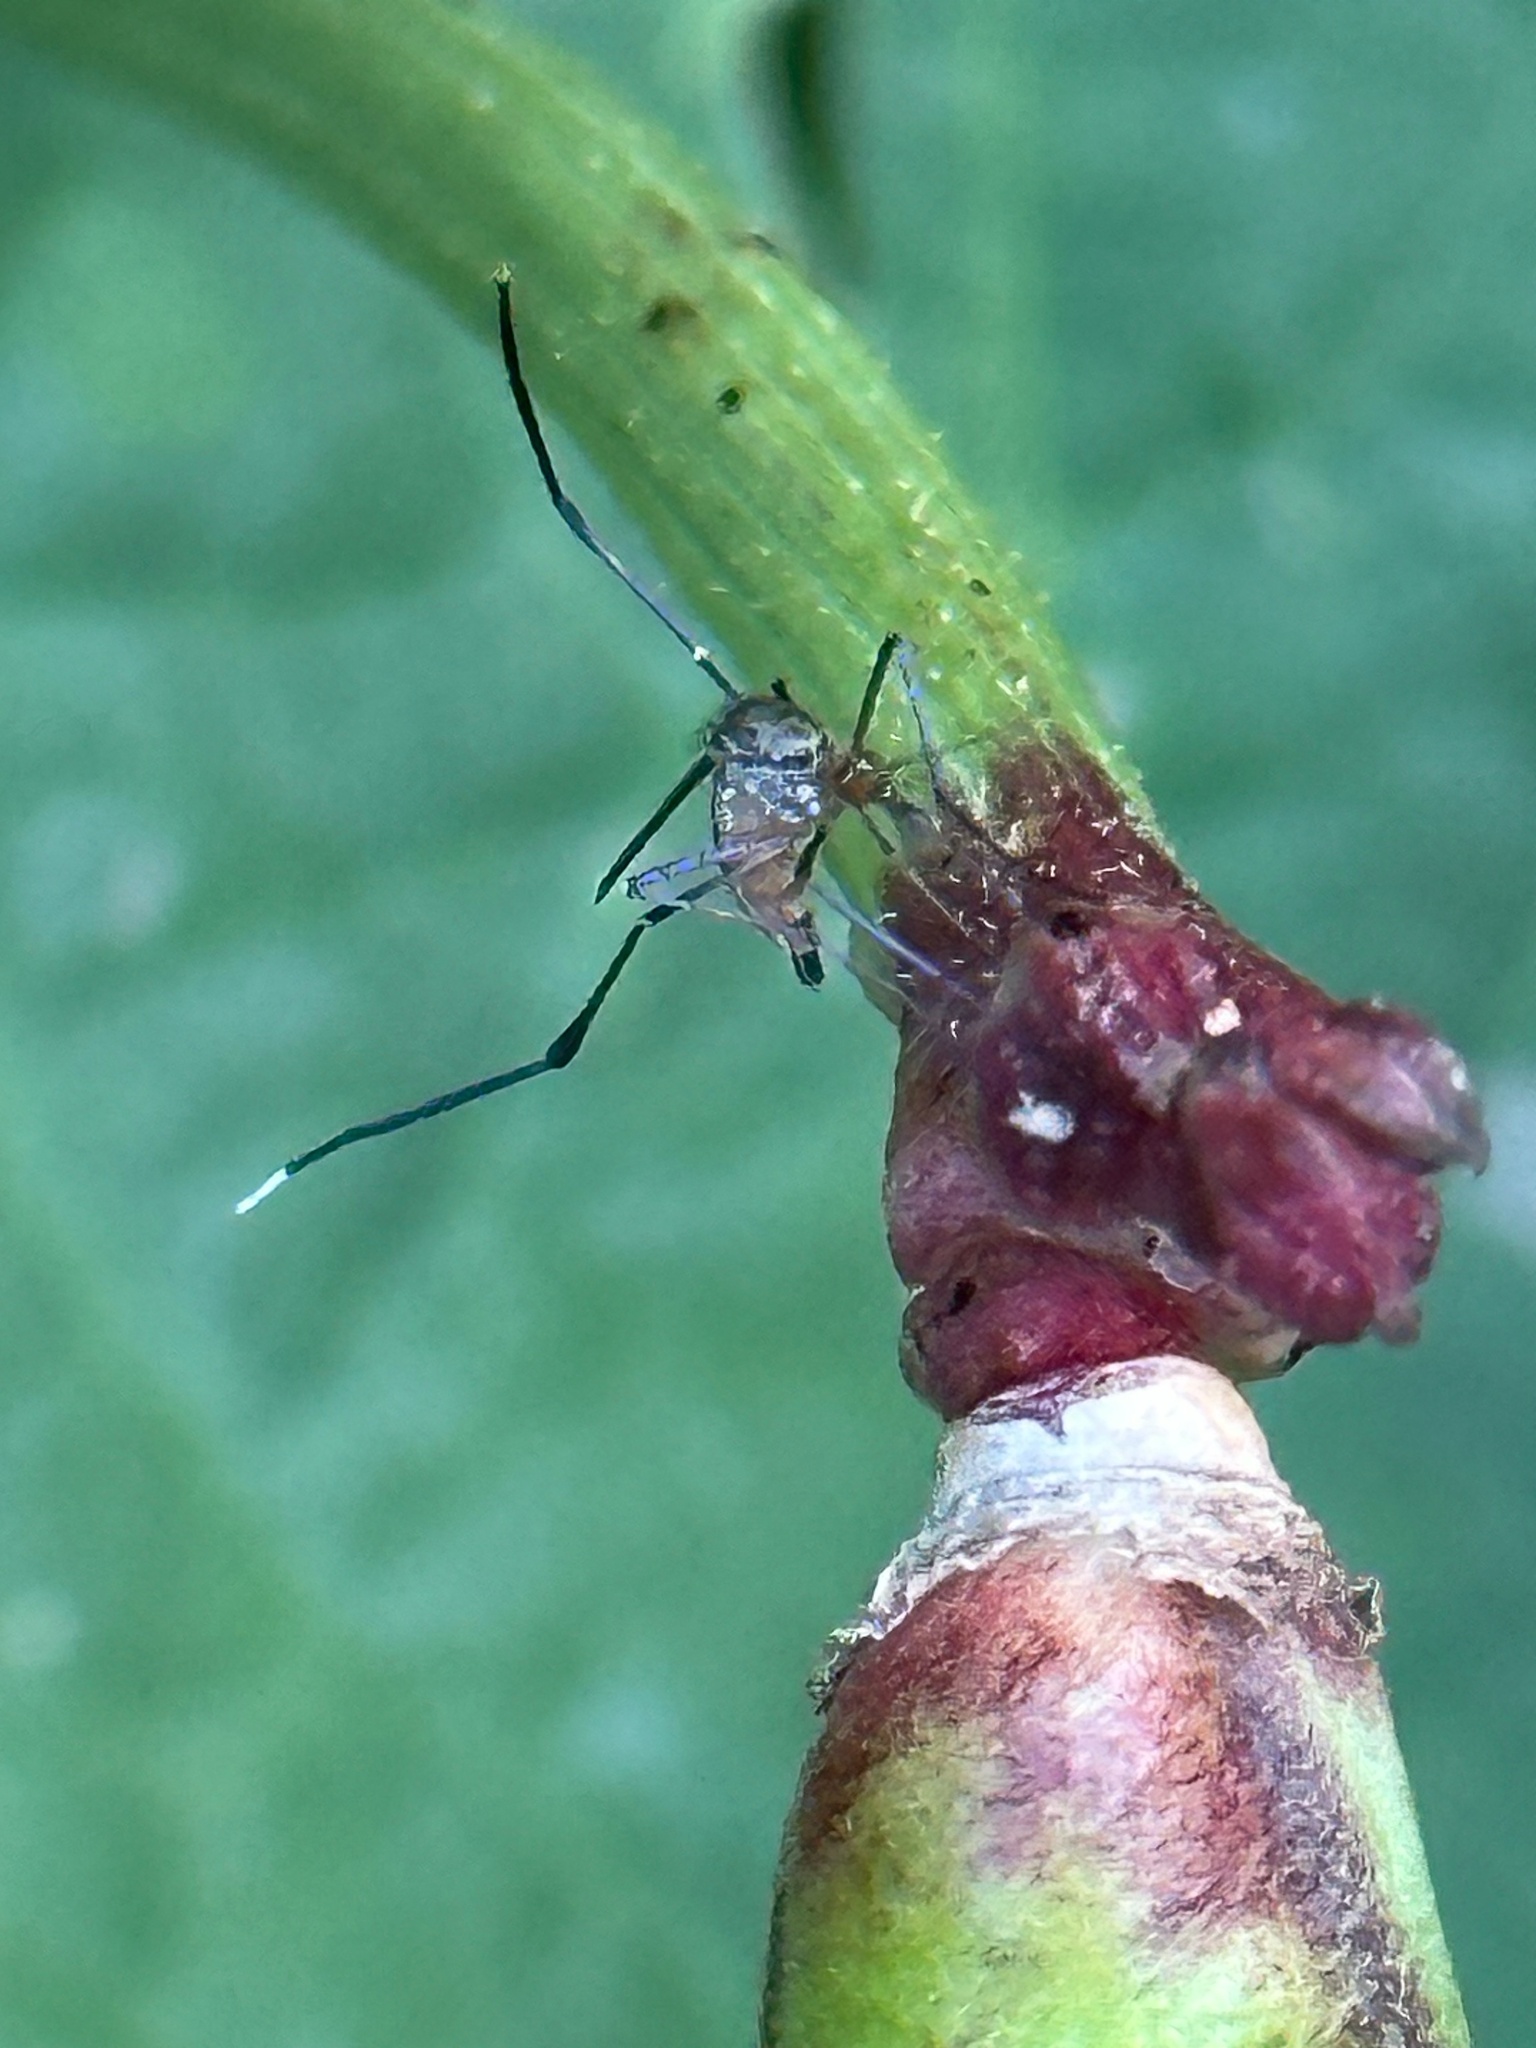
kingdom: Animalia
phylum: Arthropoda
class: Insecta
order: Diptera
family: Culicidae
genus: Psorophora
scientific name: Psorophora ferox
